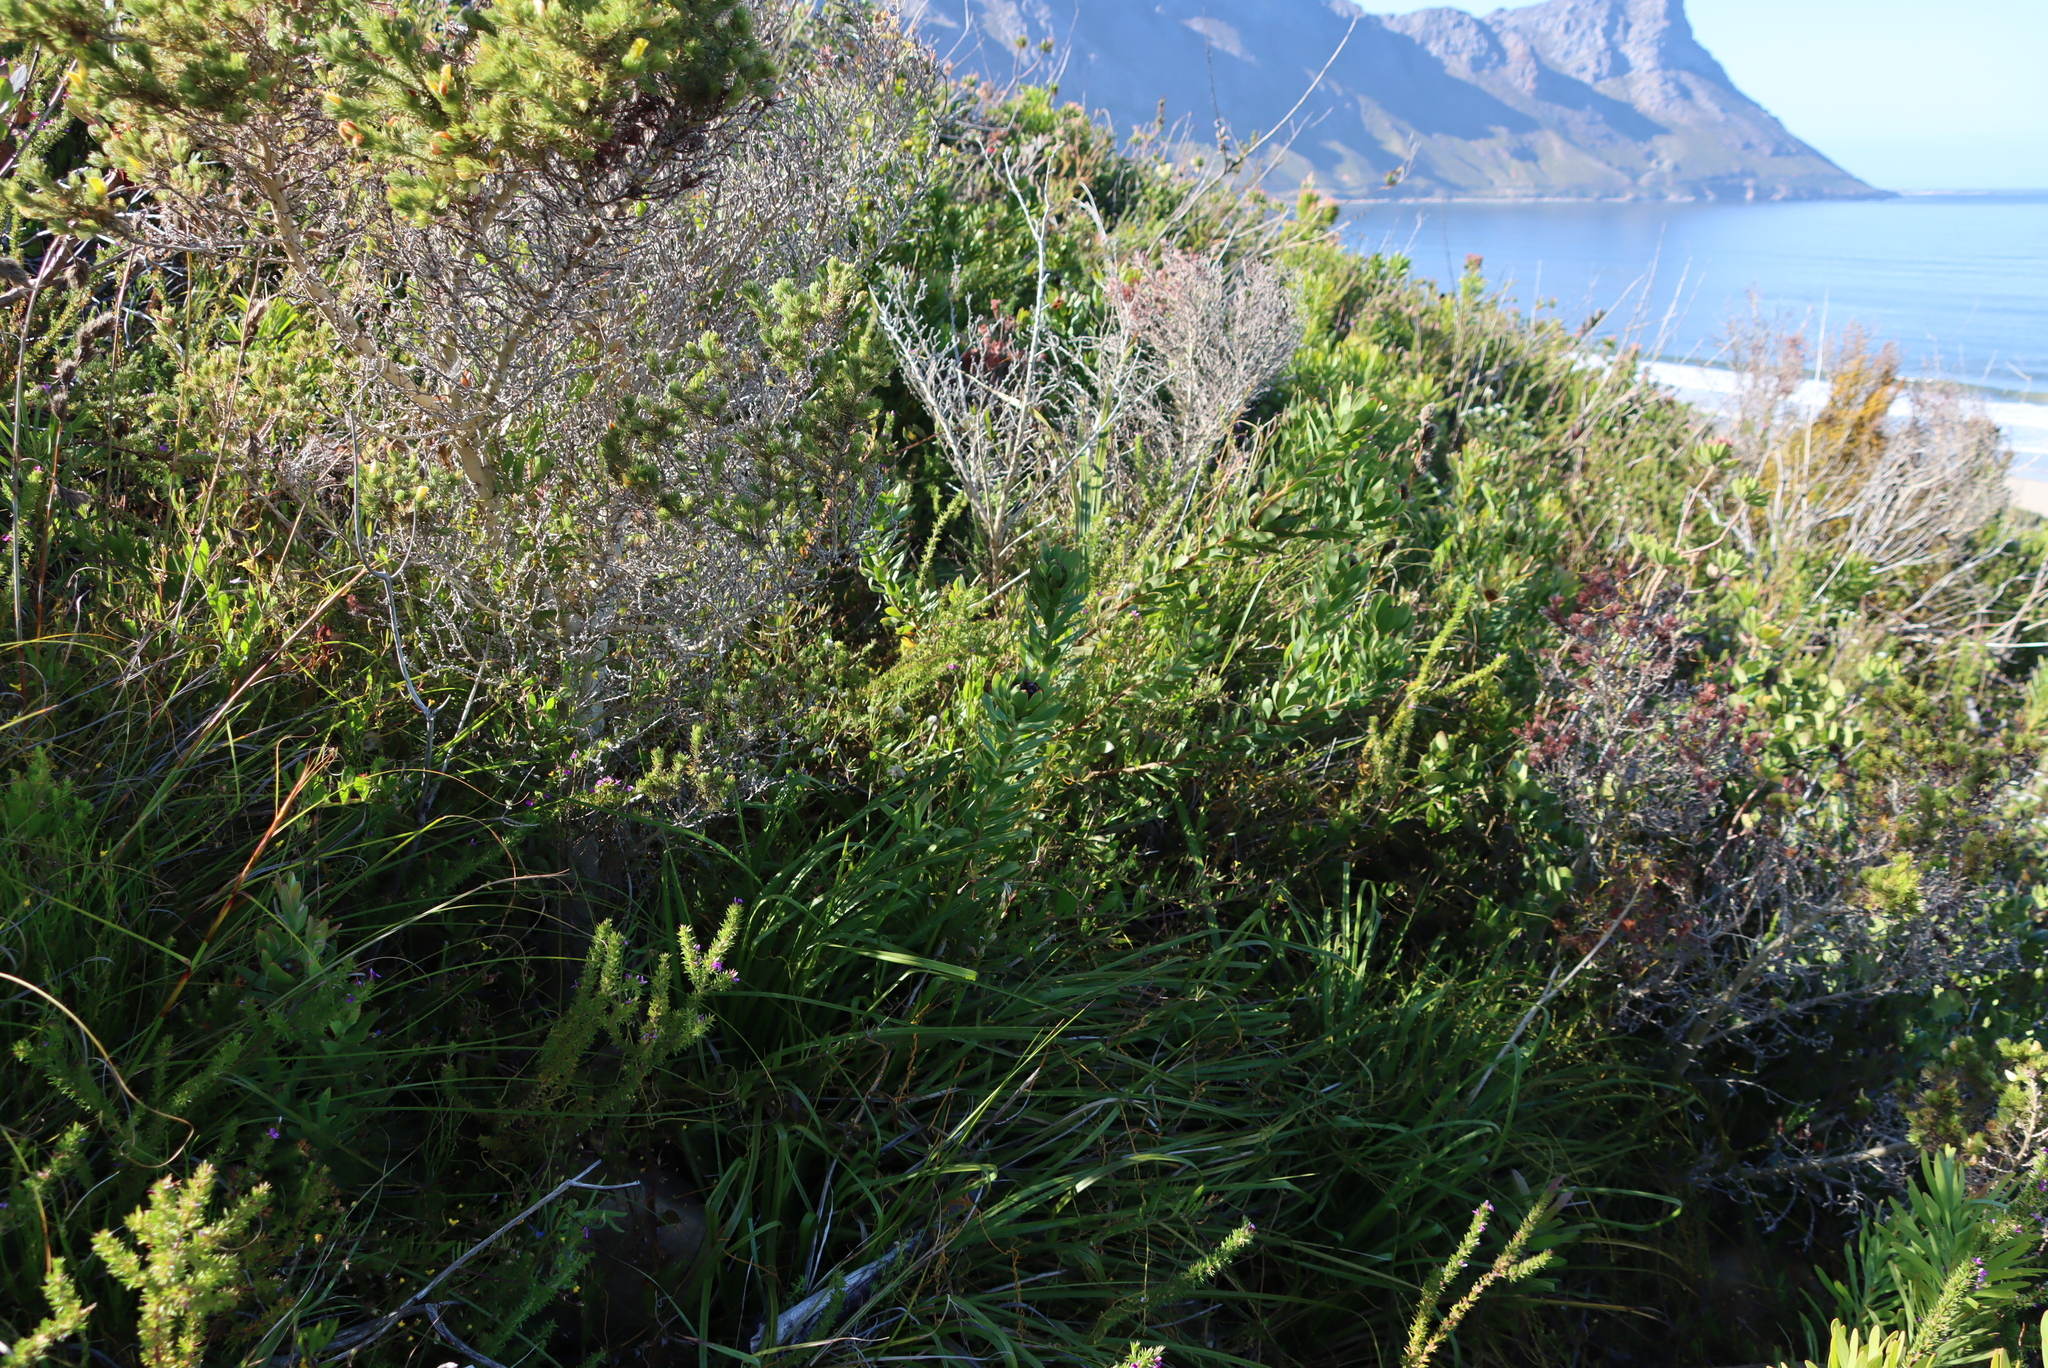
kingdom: Plantae
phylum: Tracheophyta
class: Magnoliopsida
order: Proteales
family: Proteaceae
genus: Leucadendron
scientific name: Leucadendron sessile
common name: Western sunbush
